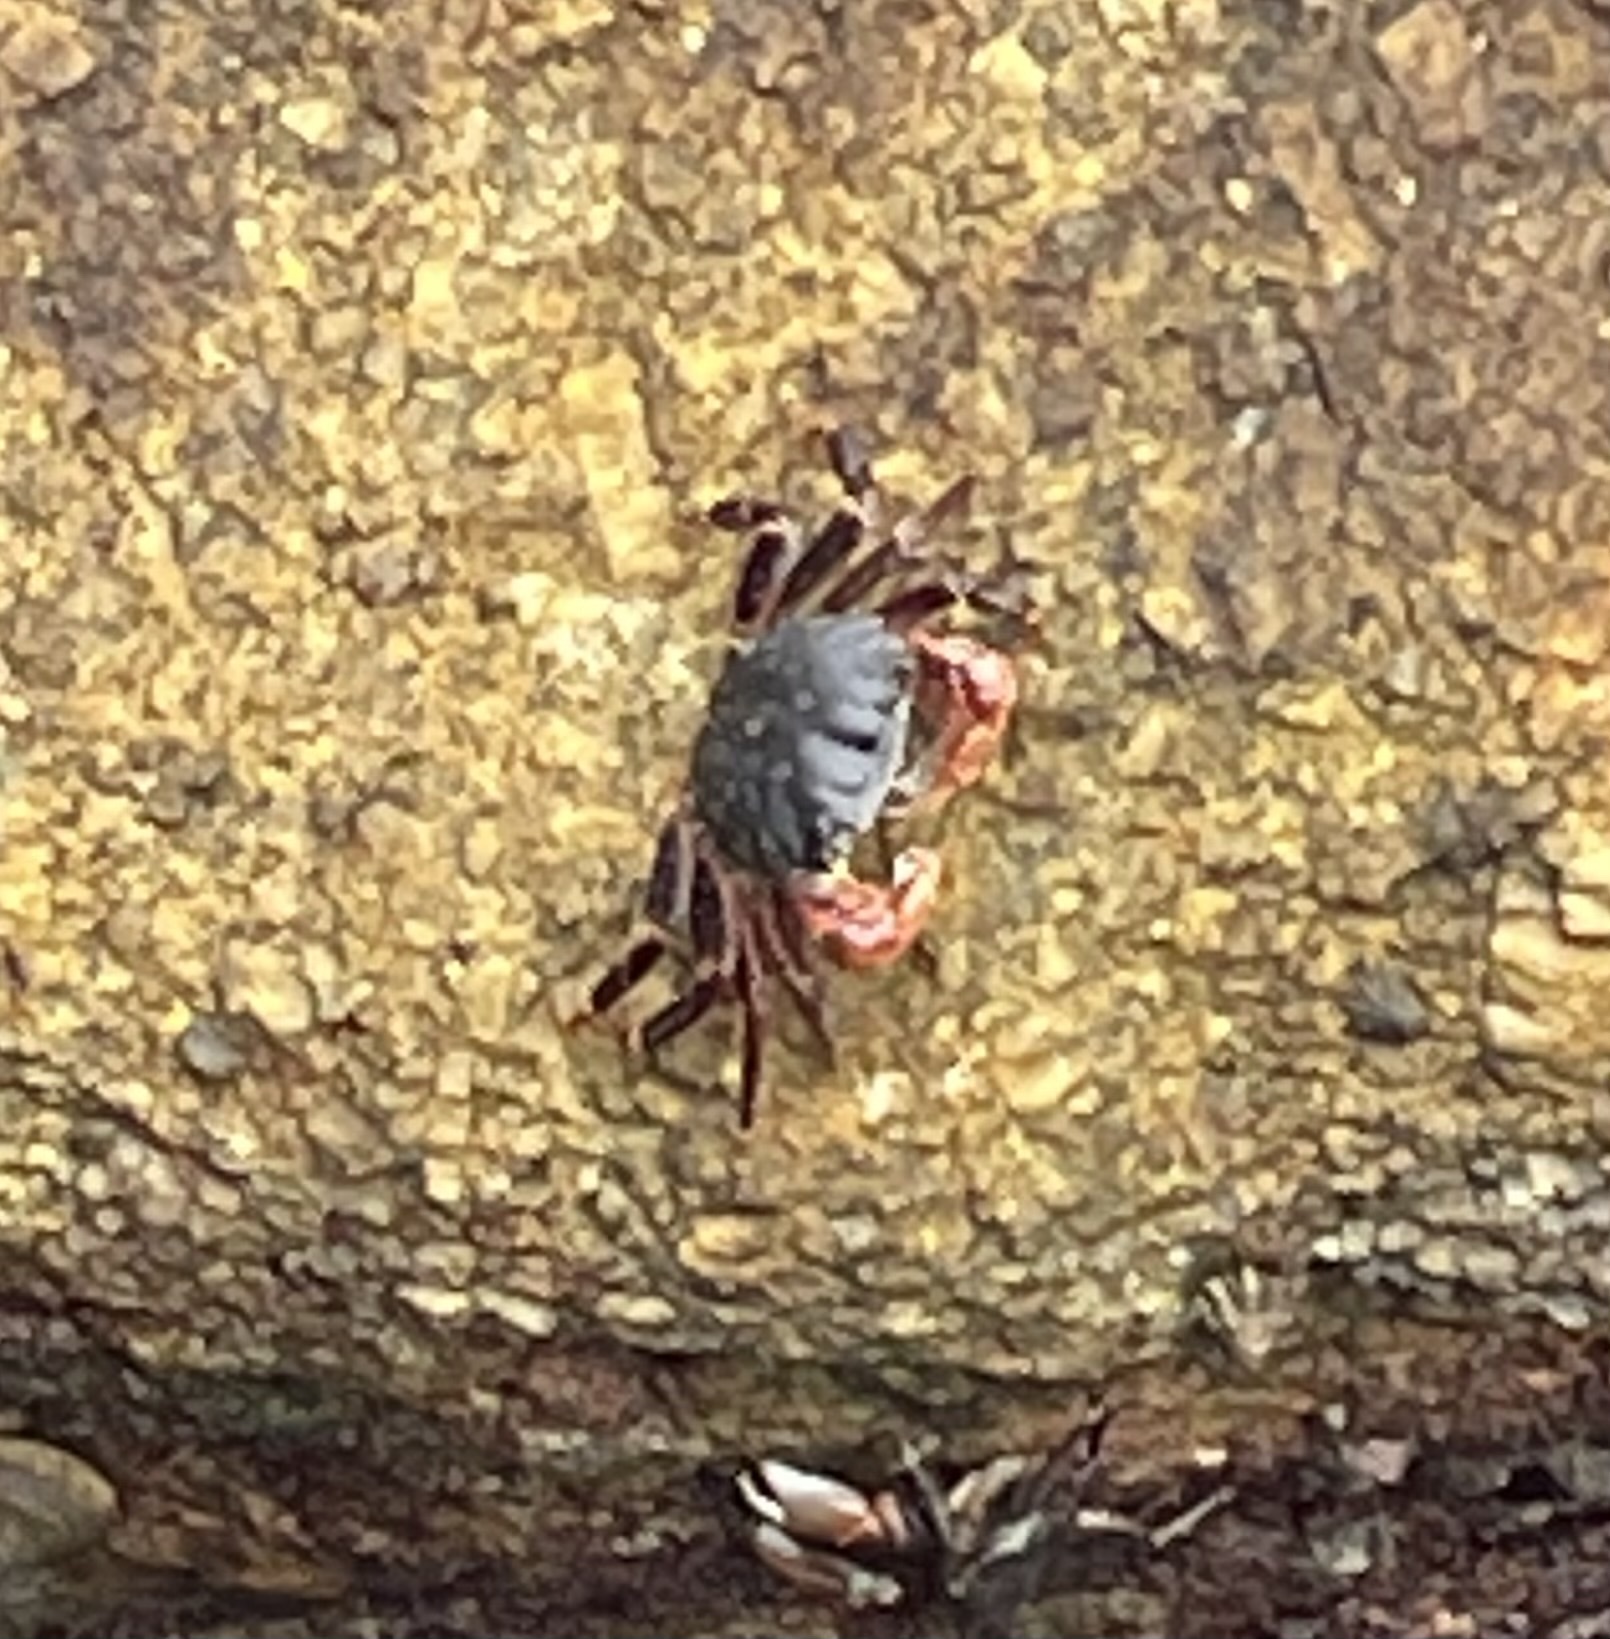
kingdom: Animalia
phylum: Arthropoda
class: Malacostraca
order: Decapoda
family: Grapsidae
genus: Pachygrapsus
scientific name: Pachygrapsus crassipes
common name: Striped shore crab
